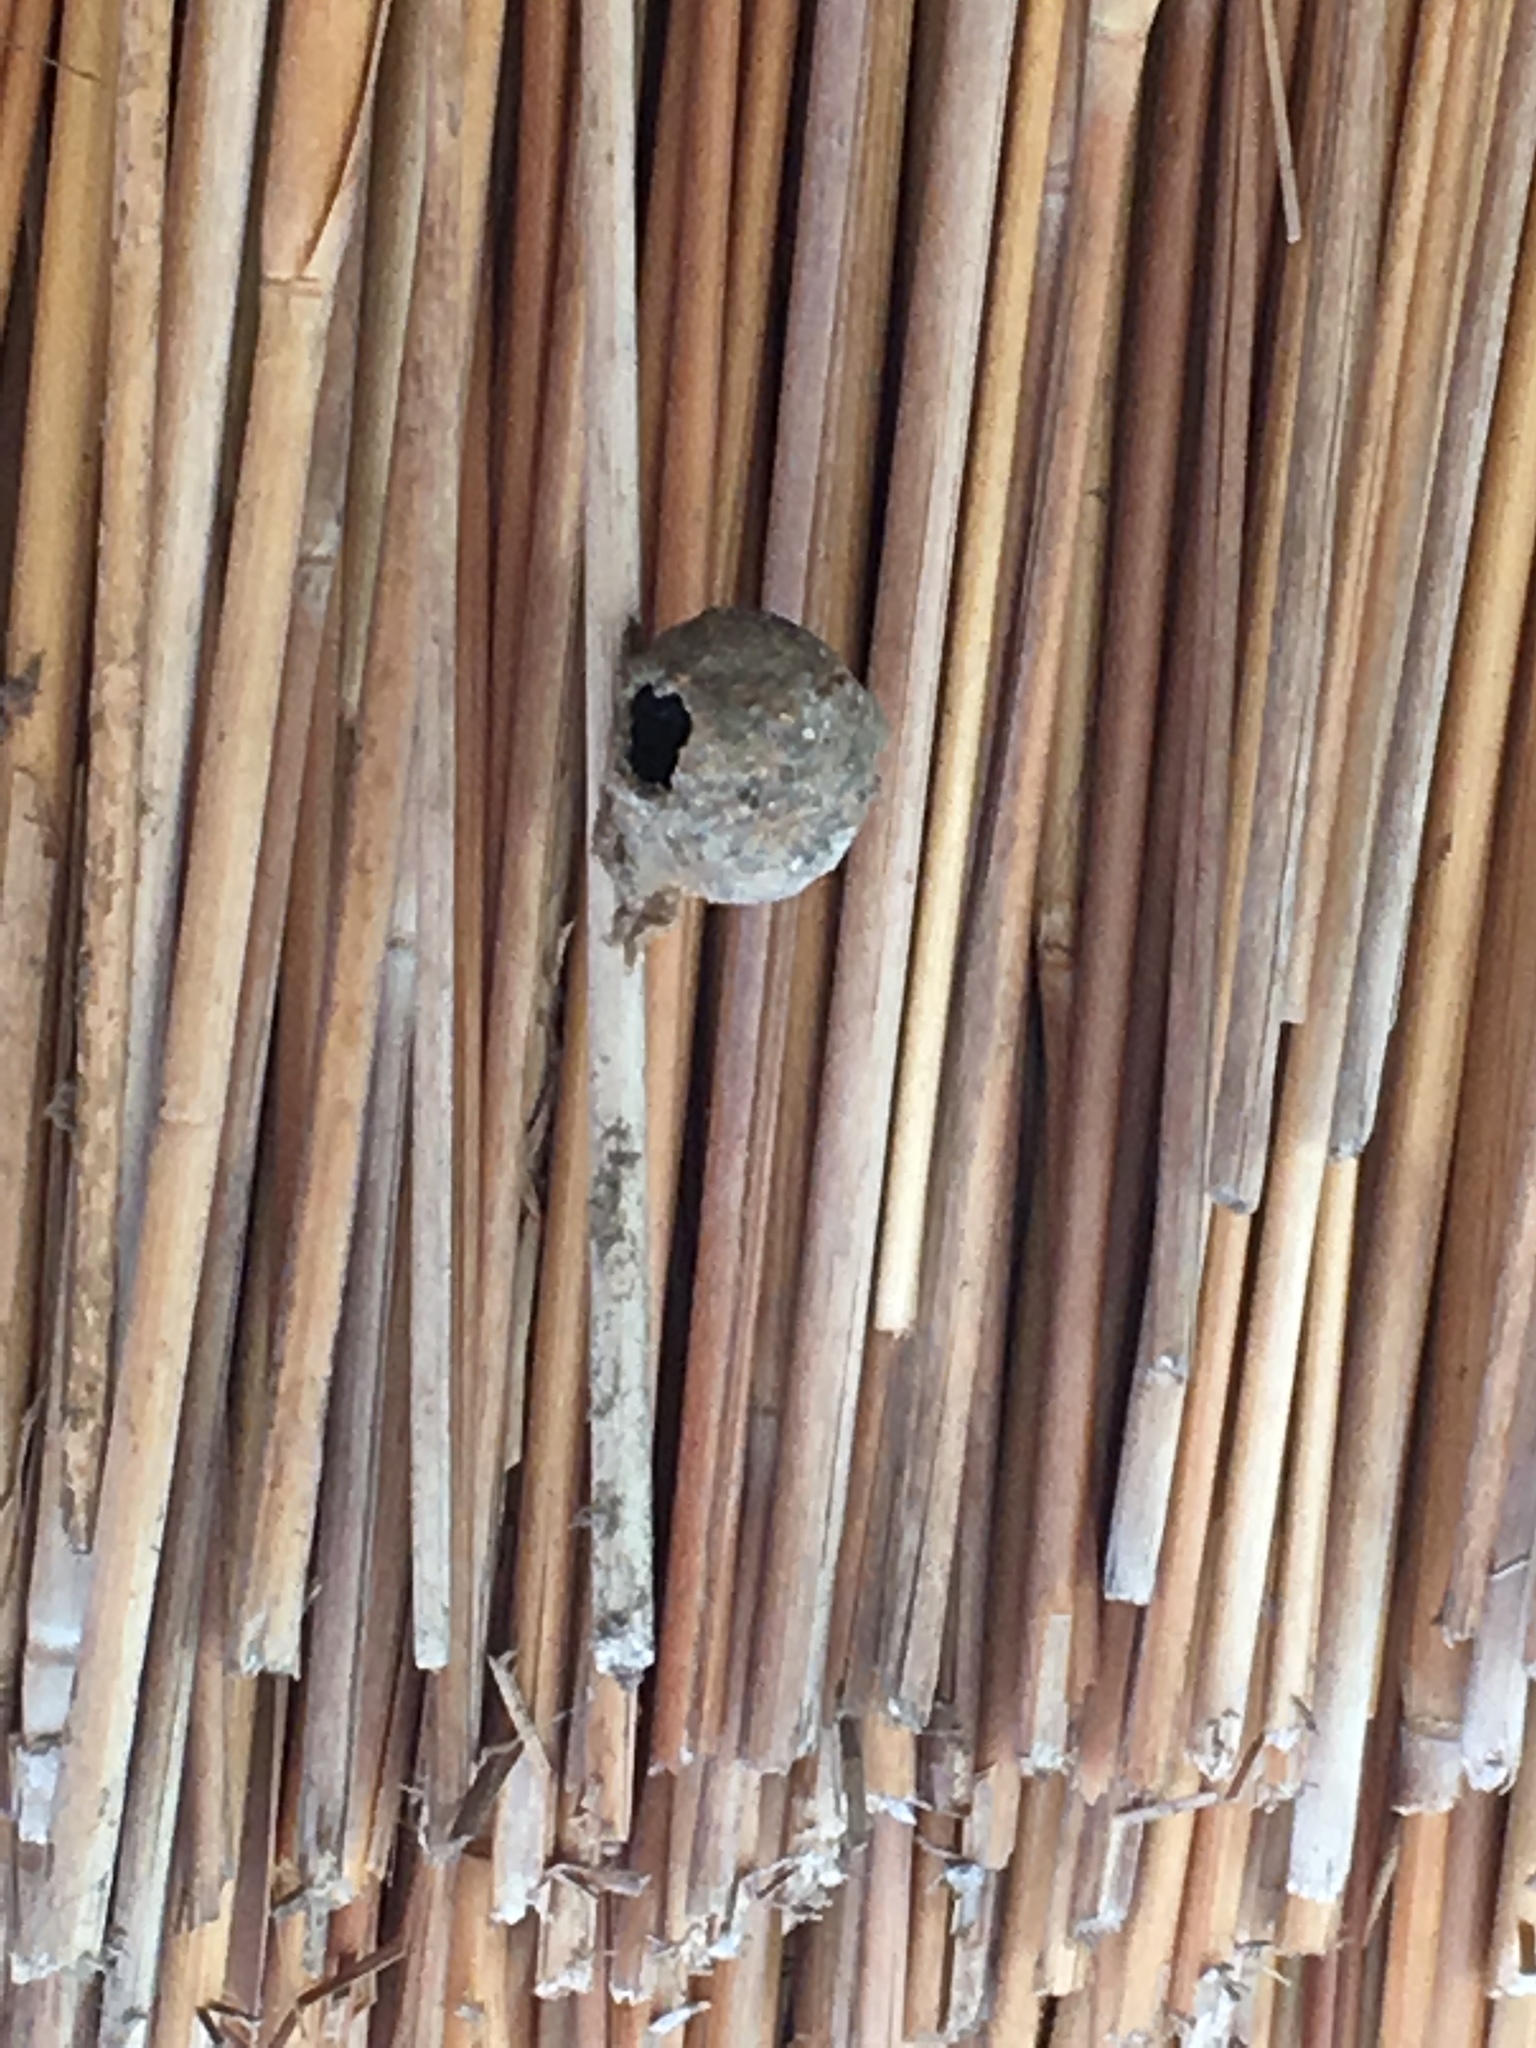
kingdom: Animalia
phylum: Arthropoda
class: Insecta
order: Hymenoptera
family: Eumenidae
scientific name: Eumenidae
